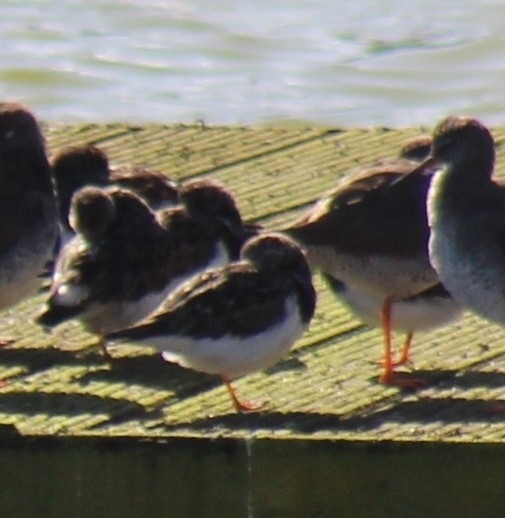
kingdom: Animalia
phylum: Chordata
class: Aves
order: Charadriiformes
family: Scolopacidae
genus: Arenaria
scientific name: Arenaria interpres
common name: Ruddy turnstone
